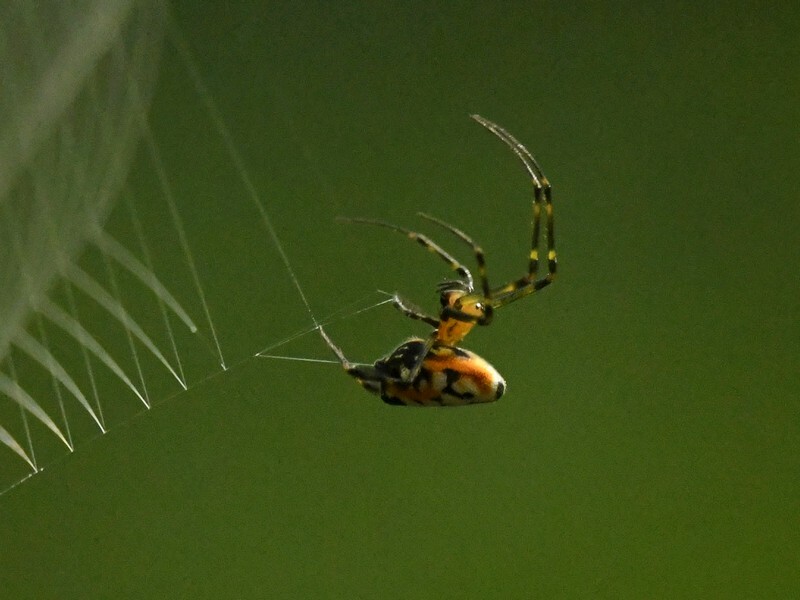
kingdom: Animalia
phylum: Arthropoda
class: Arachnida
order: Araneae
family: Tetragnathidae
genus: Leucauge
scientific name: Leucauge fastigata
